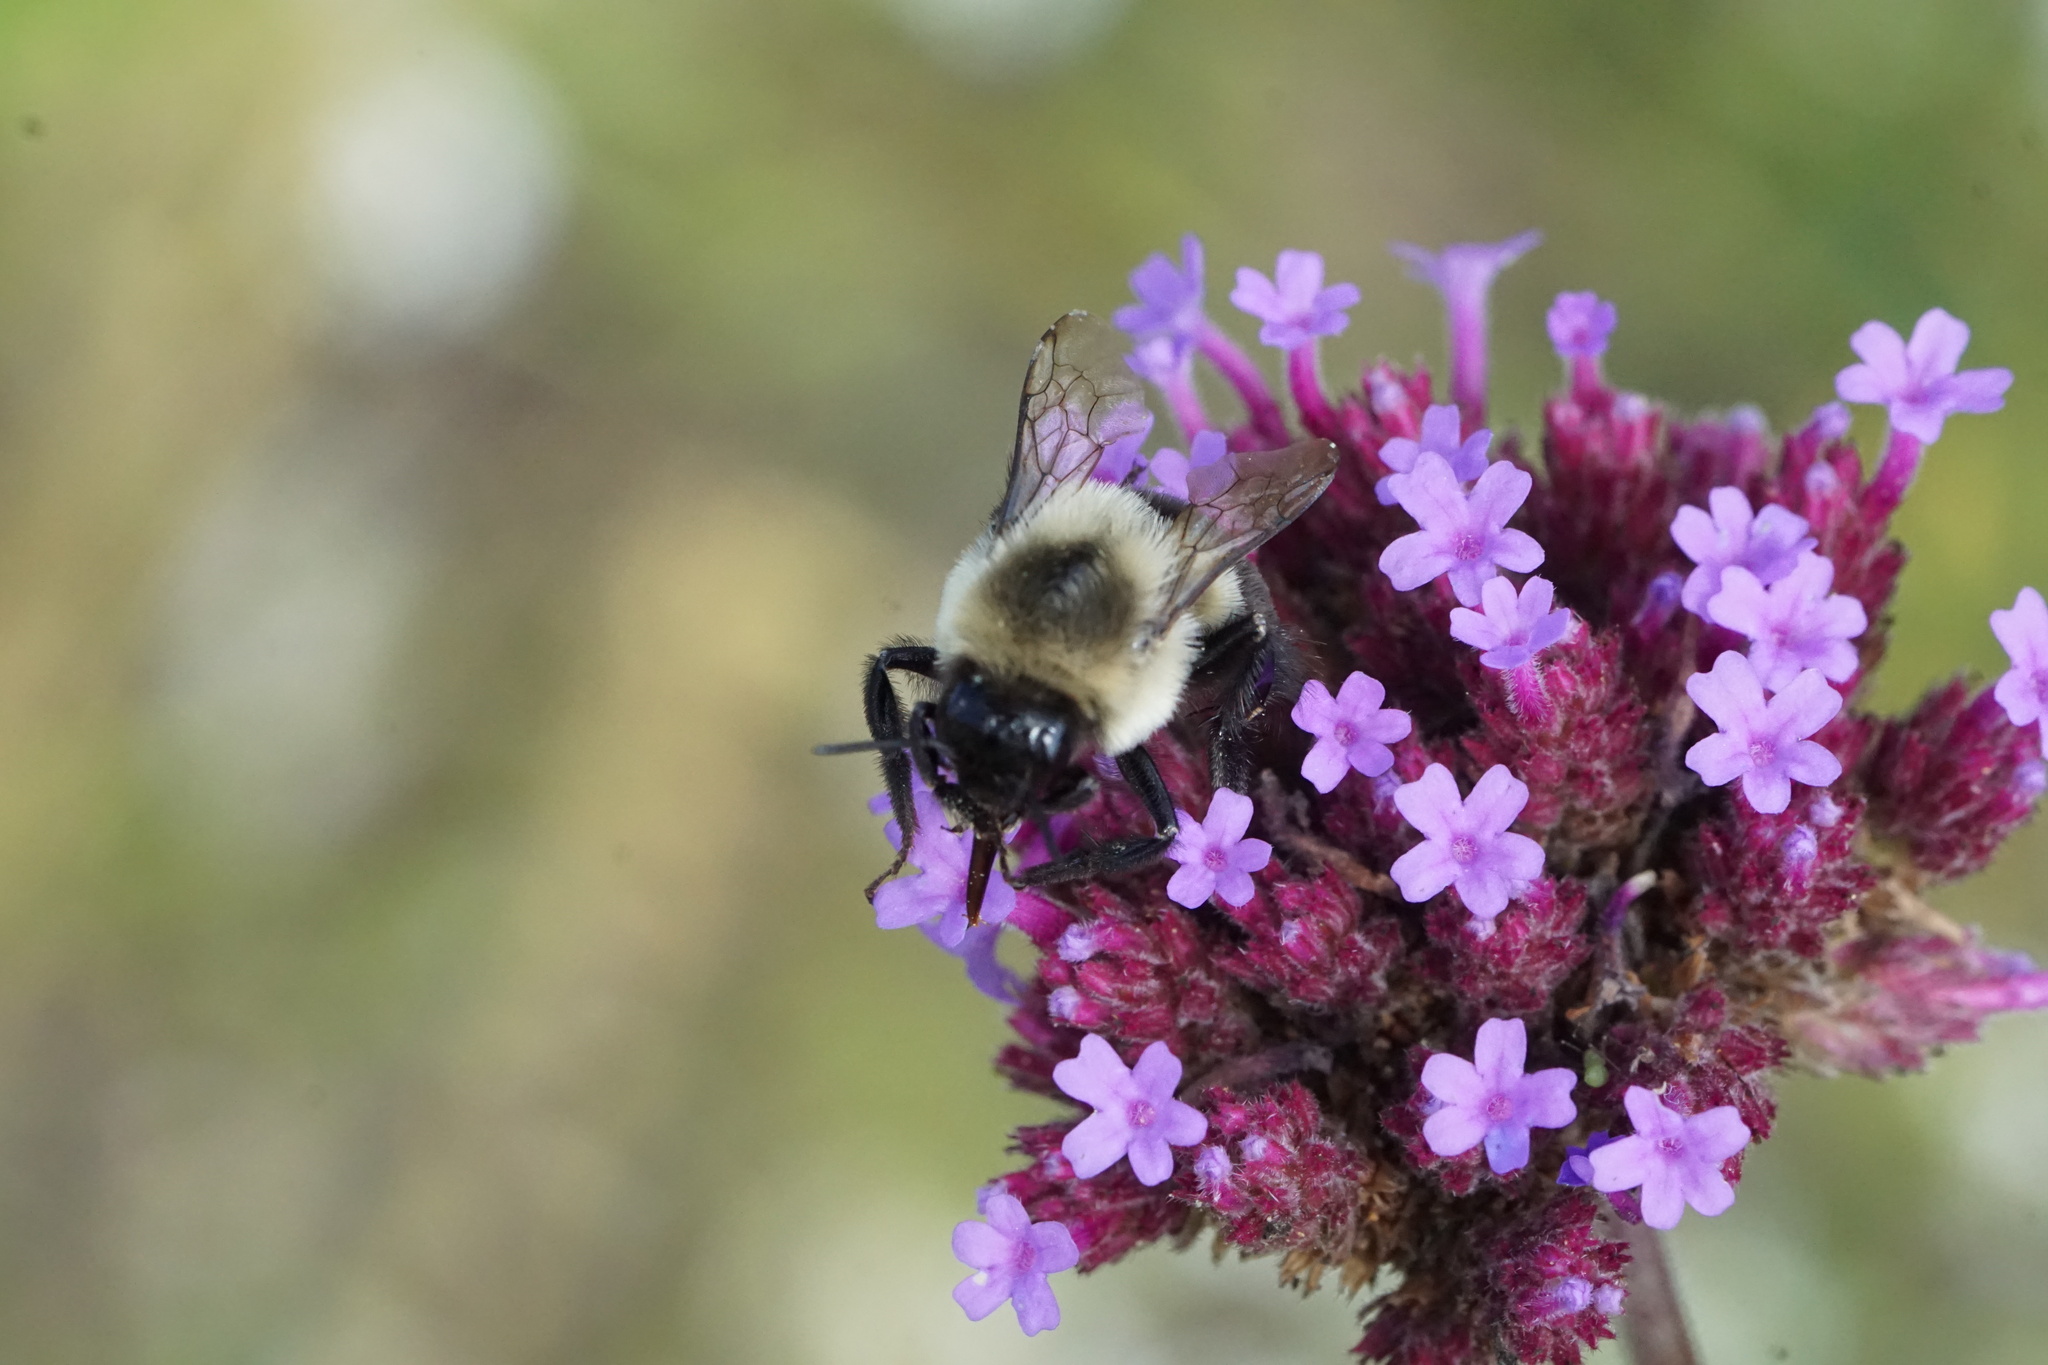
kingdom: Animalia
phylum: Arthropoda
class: Insecta
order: Hymenoptera
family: Apidae
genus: Bombus
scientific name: Bombus impatiens
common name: Common eastern bumble bee
